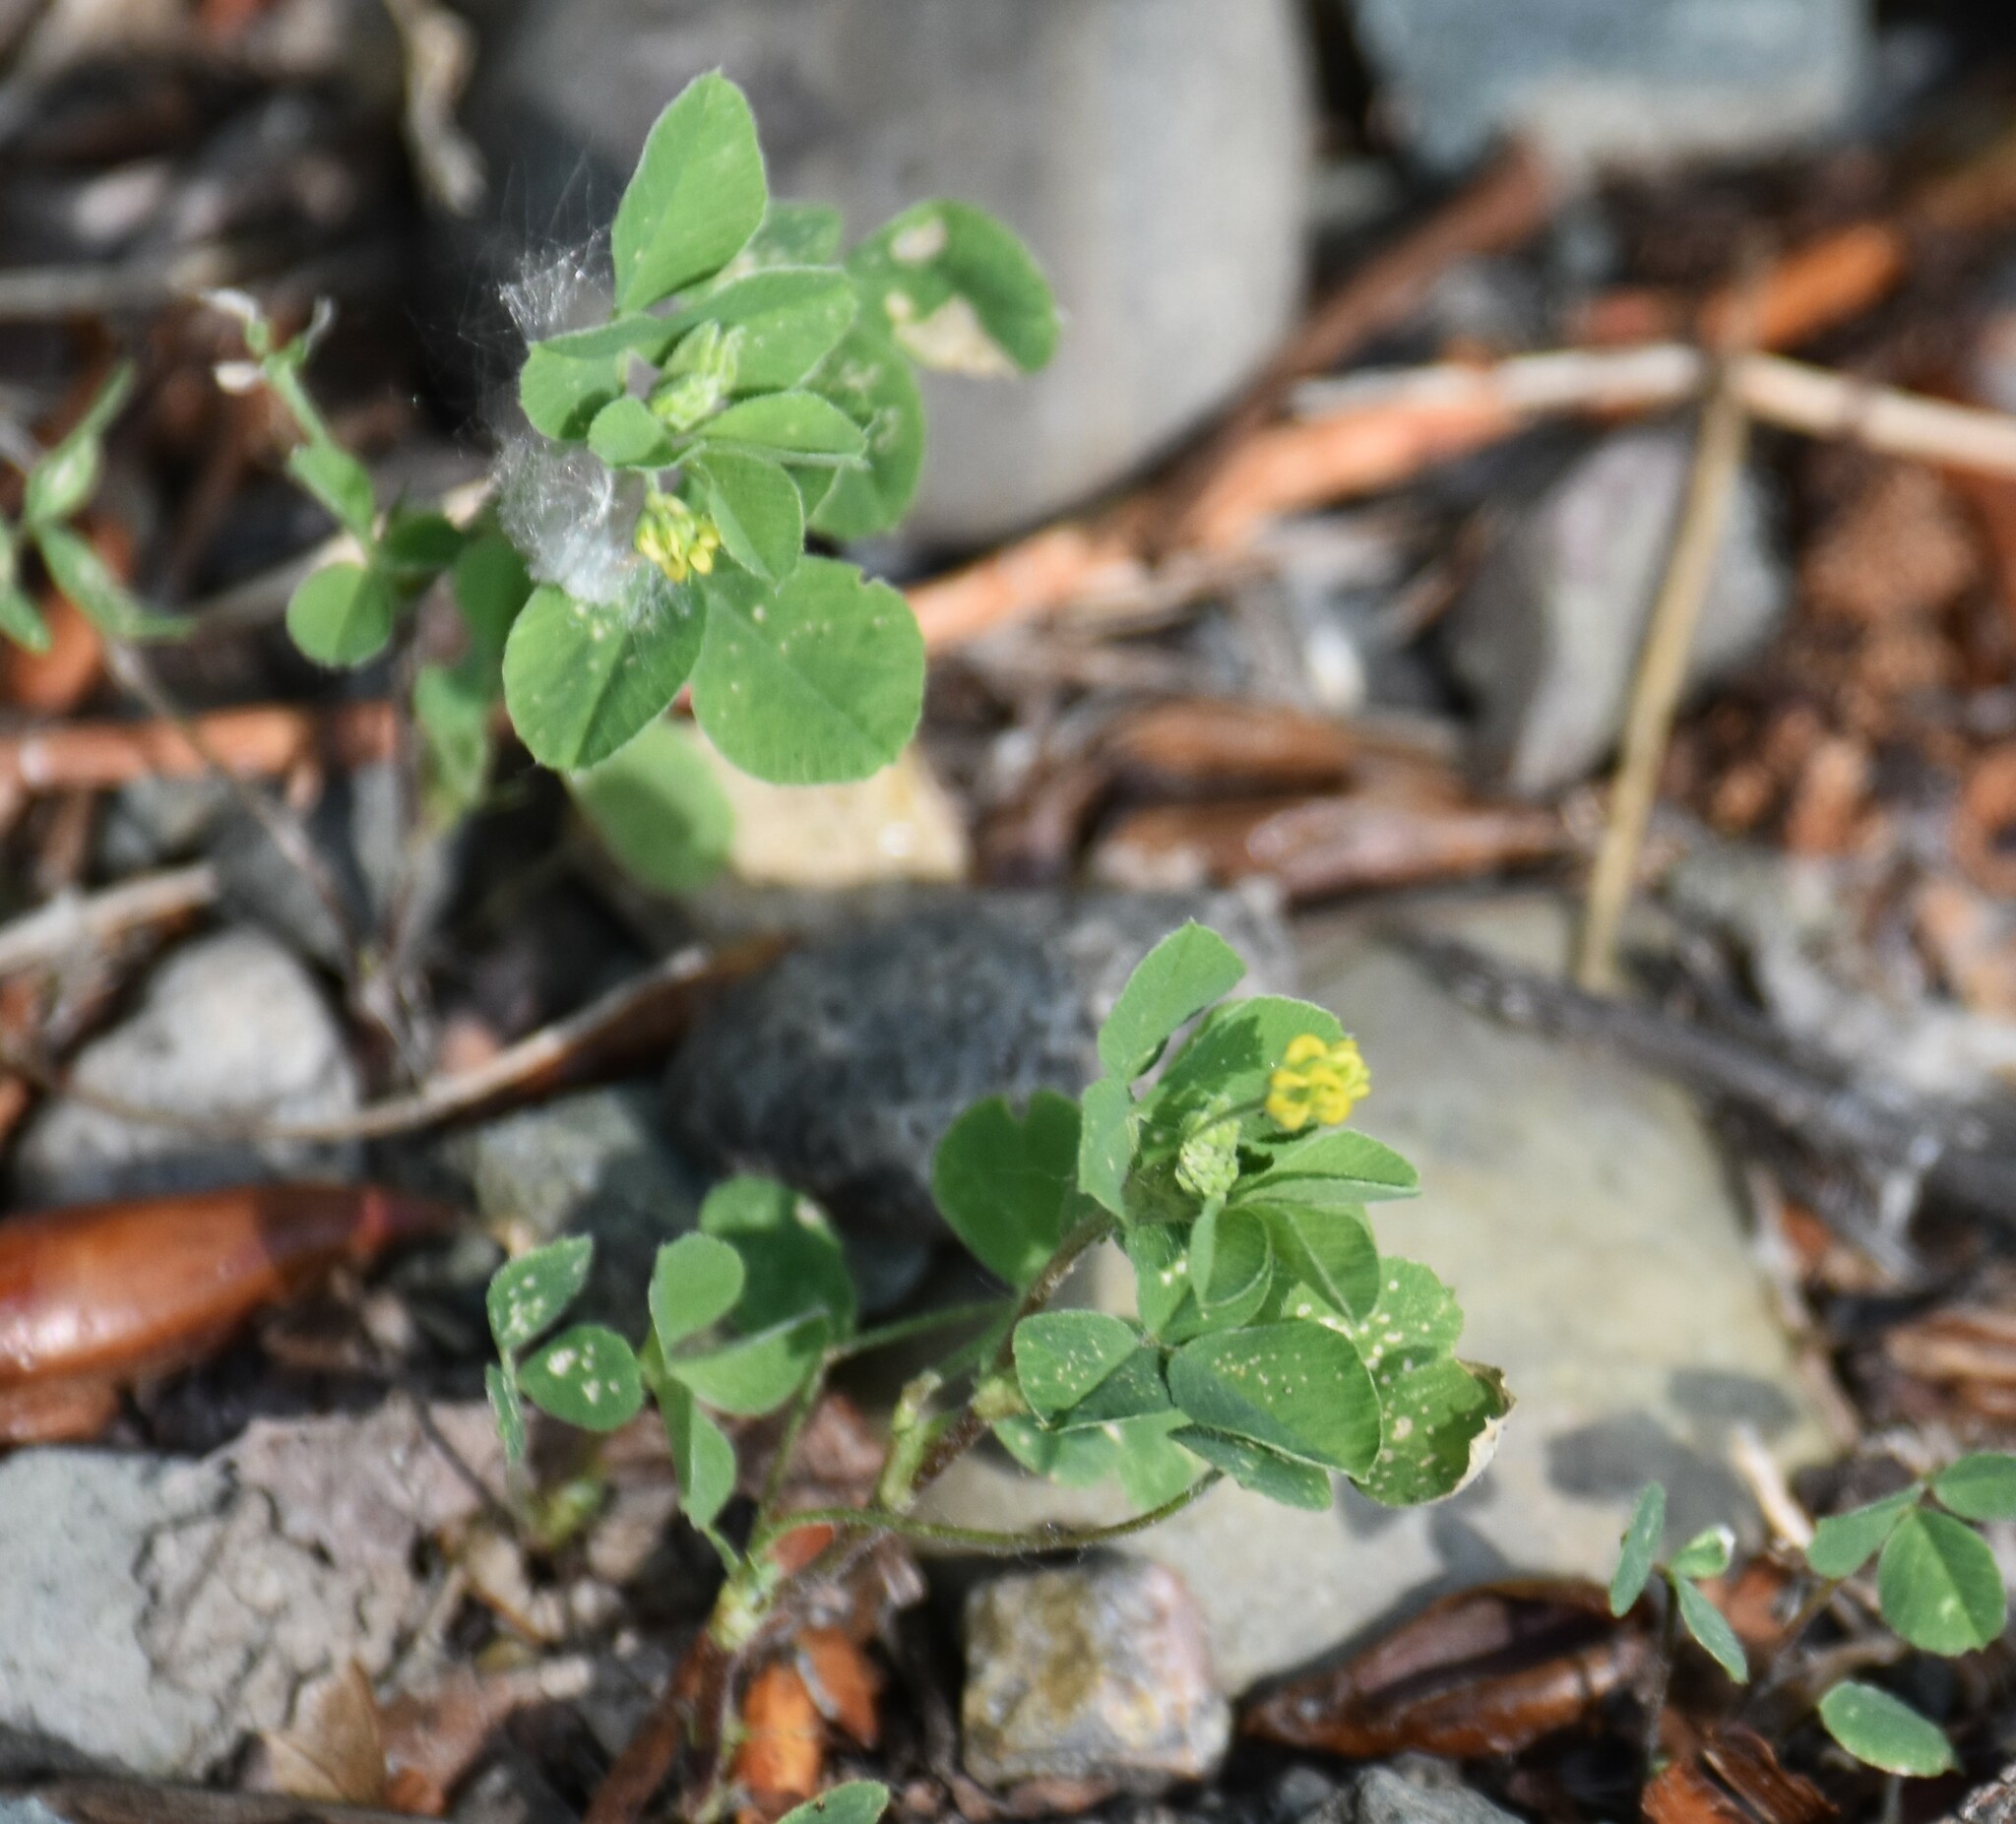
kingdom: Plantae
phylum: Tracheophyta
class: Magnoliopsida
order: Fabales
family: Fabaceae
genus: Medicago
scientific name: Medicago lupulina
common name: Black medick
